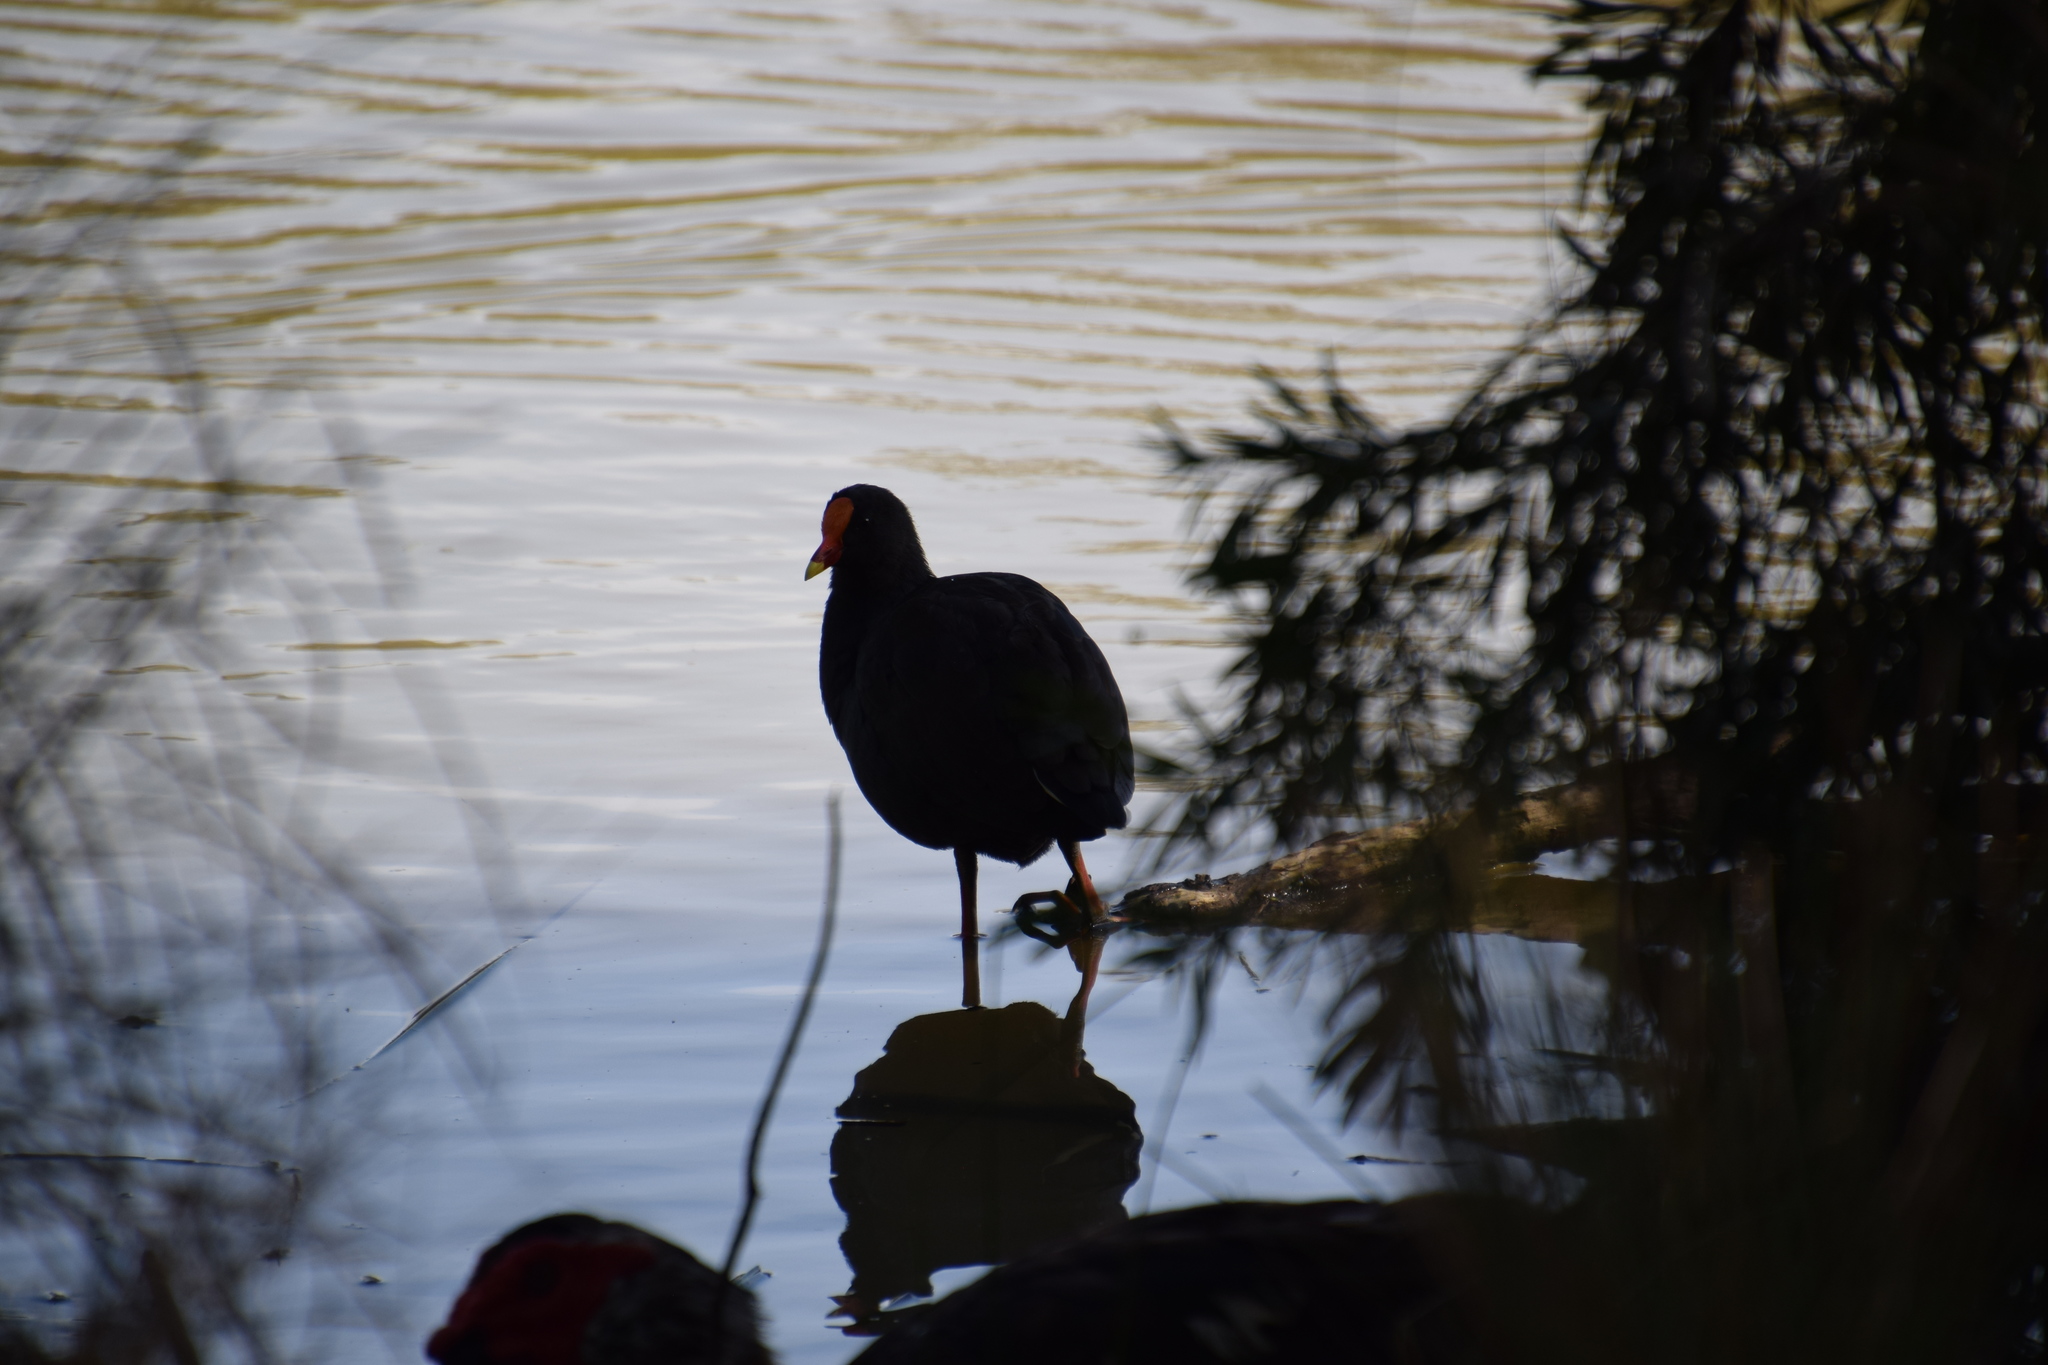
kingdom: Animalia
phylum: Chordata
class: Aves
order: Gruiformes
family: Rallidae
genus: Gallinula
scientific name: Gallinula tenebrosa
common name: Dusky moorhen
